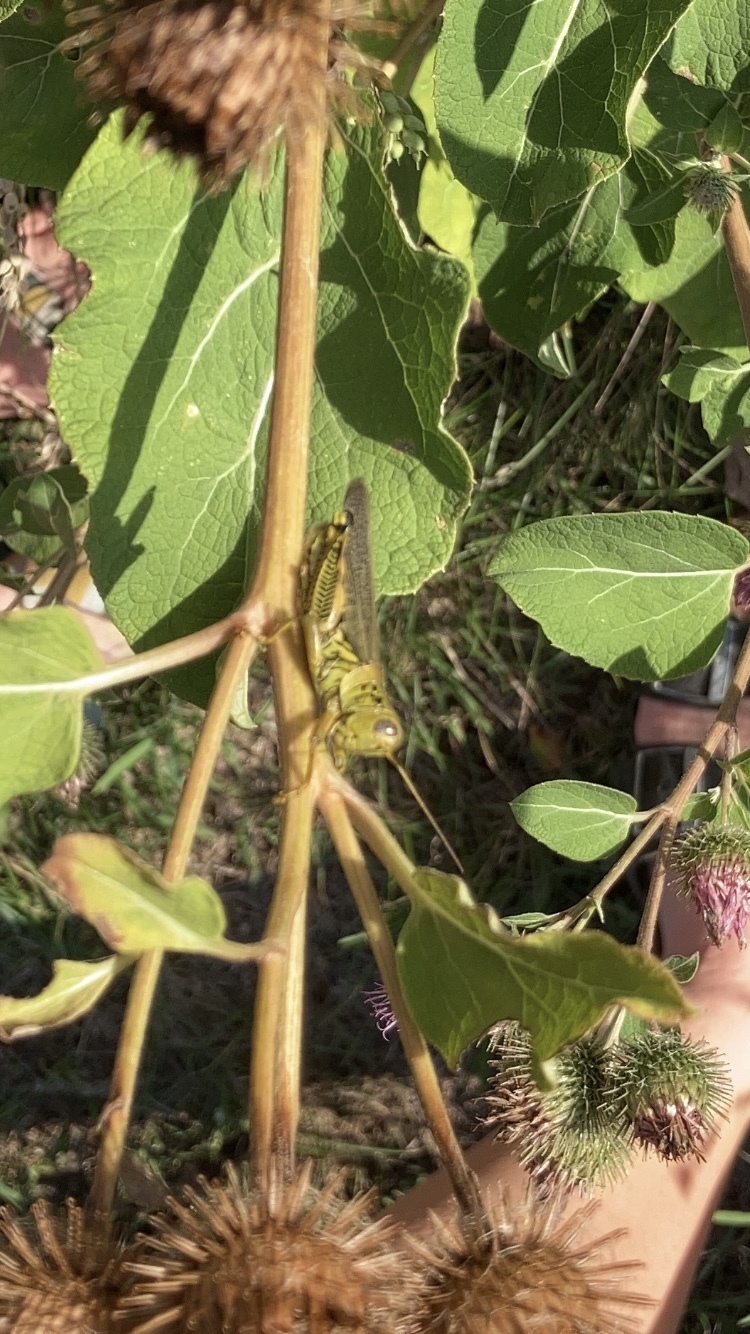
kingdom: Animalia
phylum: Arthropoda
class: Insecta
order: Orthoptera
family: Acrididae
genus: Melanoplus
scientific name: Melanoplus differentialis
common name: Differential grasshopper
